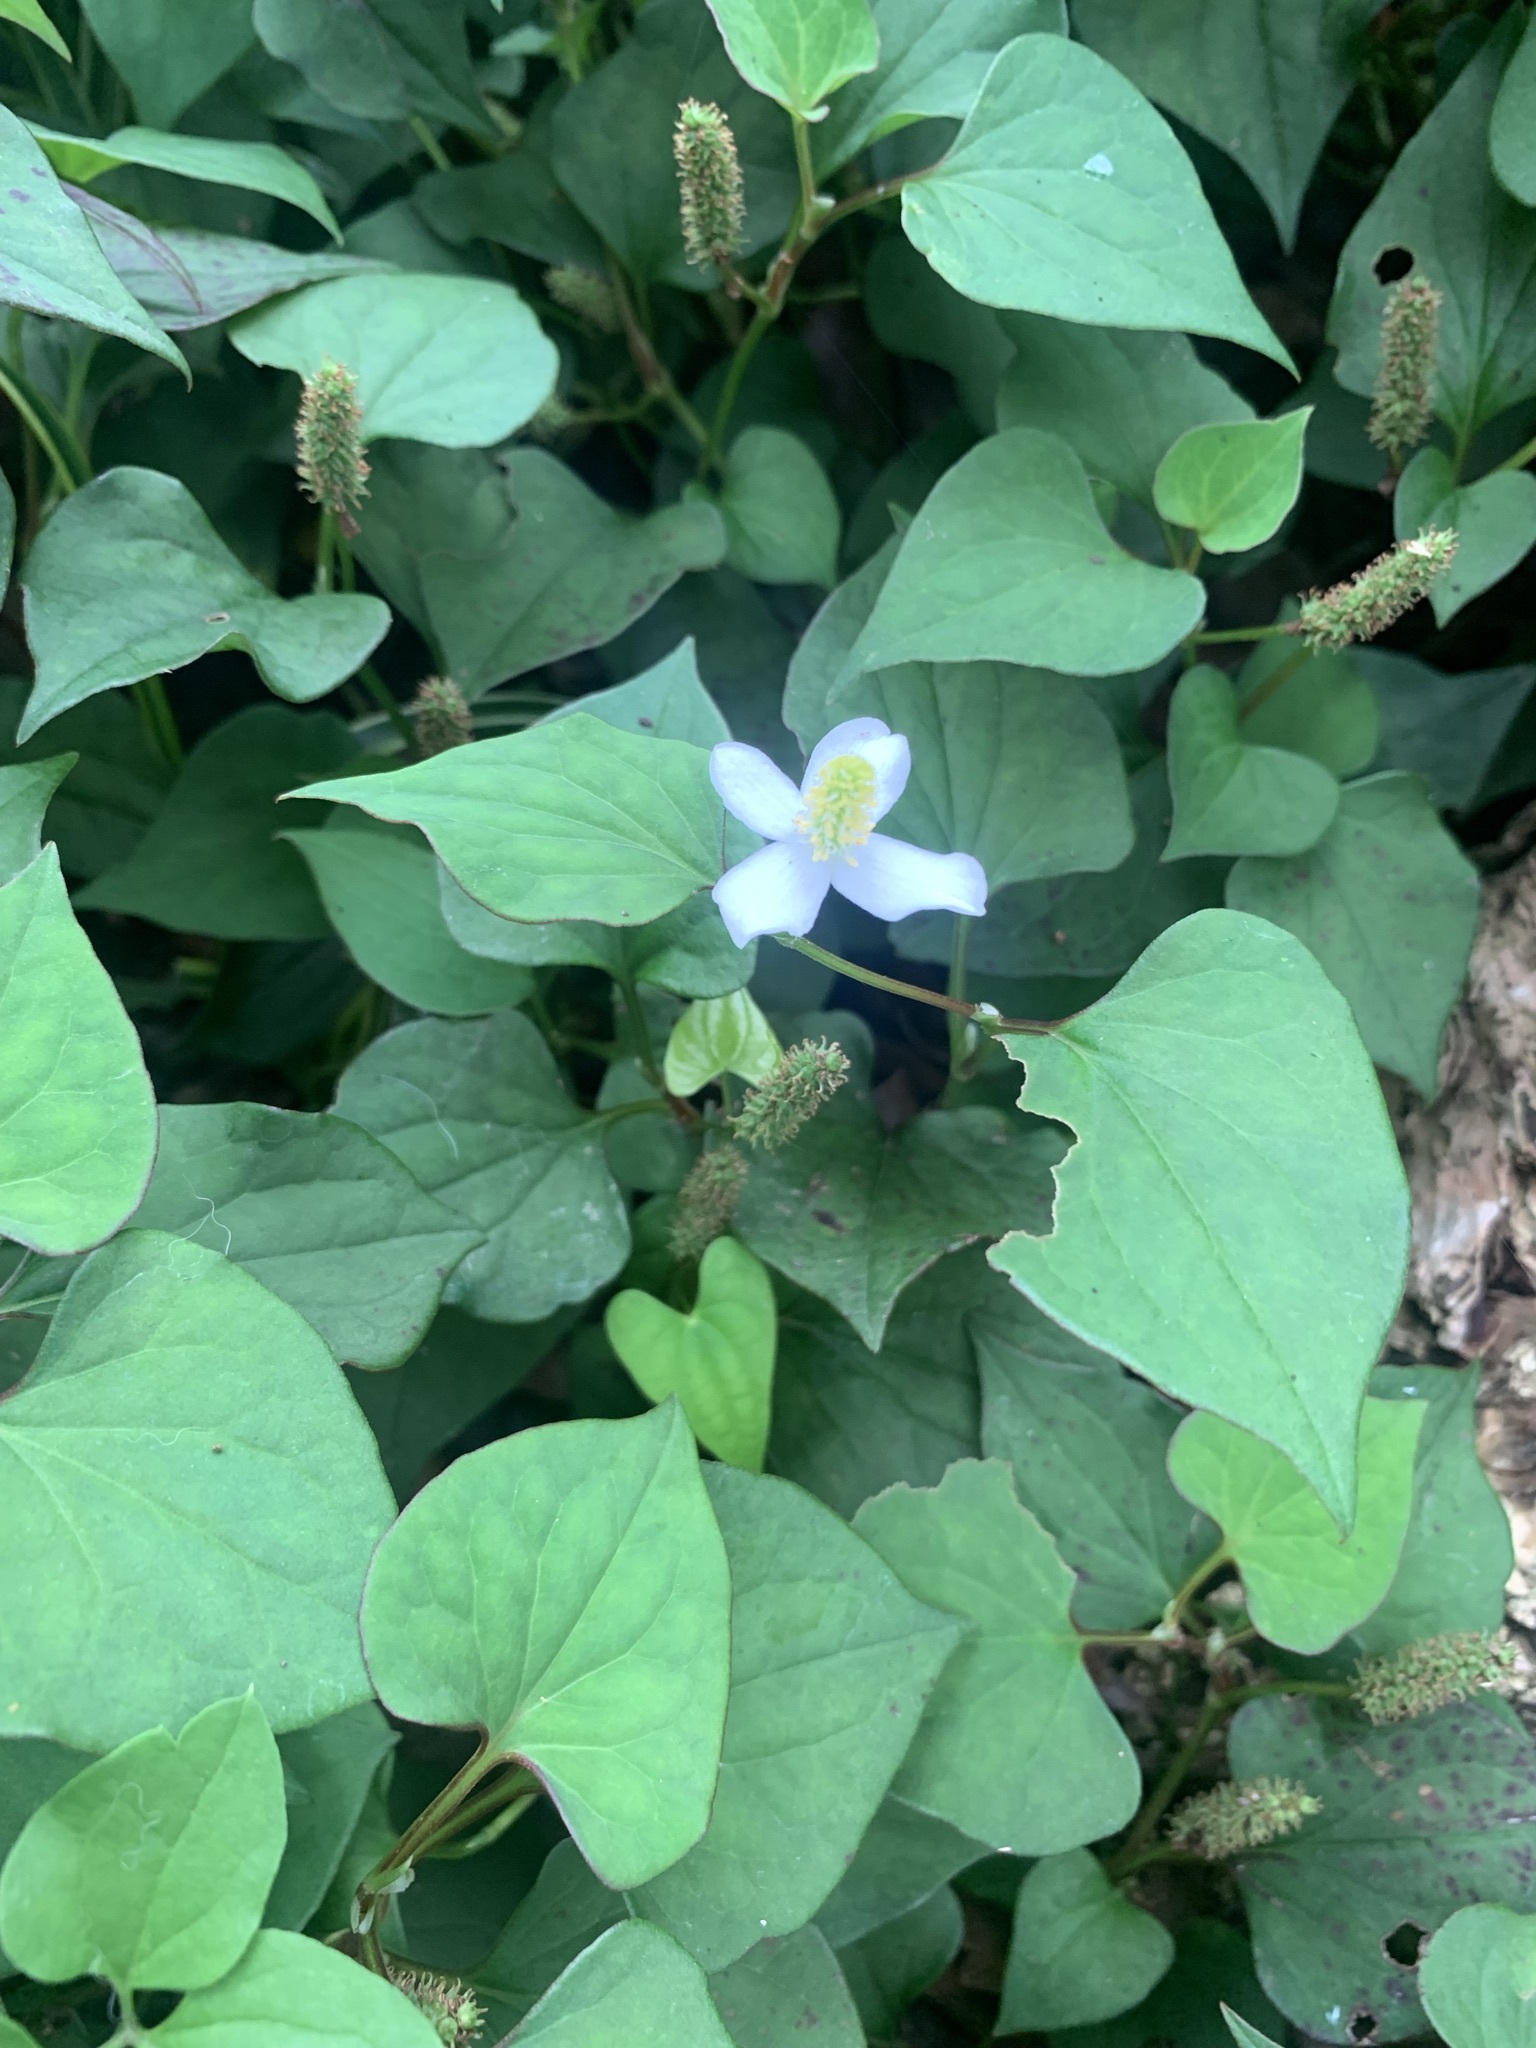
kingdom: Plantae
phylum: Tracheophyta
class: Magnoliopsida
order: Piperales
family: Saururaceae
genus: Houttuynia
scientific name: Houttuynia cordata
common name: Chameleon
